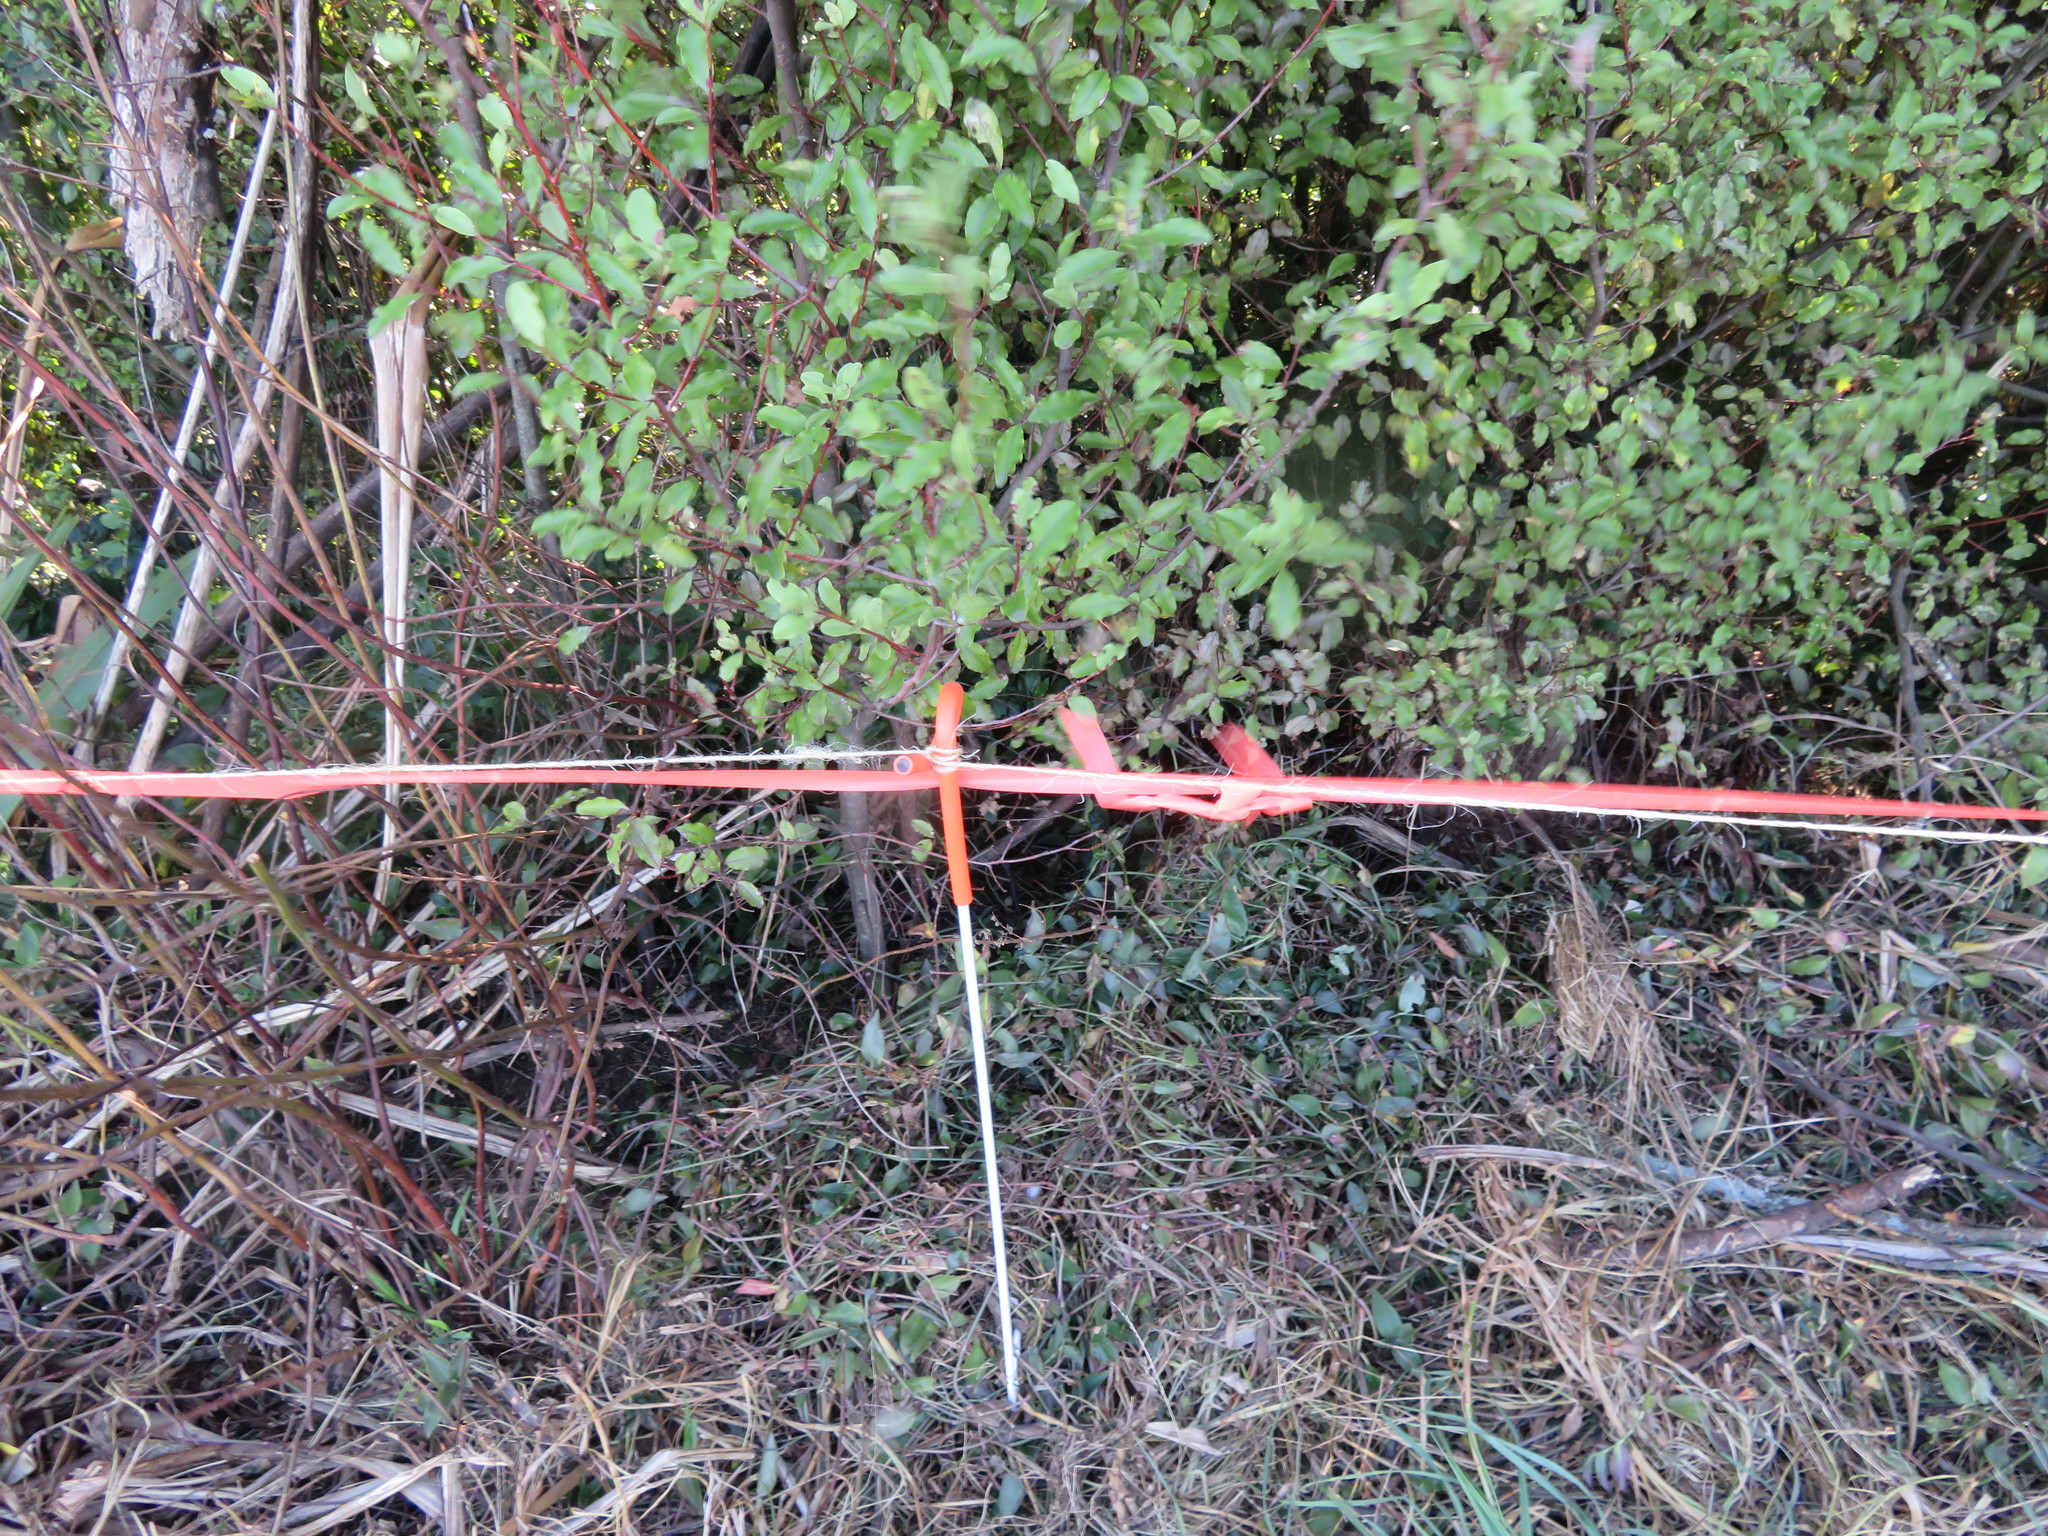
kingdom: Plantae
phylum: Tracheophyta
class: Liliopsida
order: Commelinales
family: Commelinaceae
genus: Tradescantia
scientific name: Tradescantia fluminensis
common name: Wandering-jew
